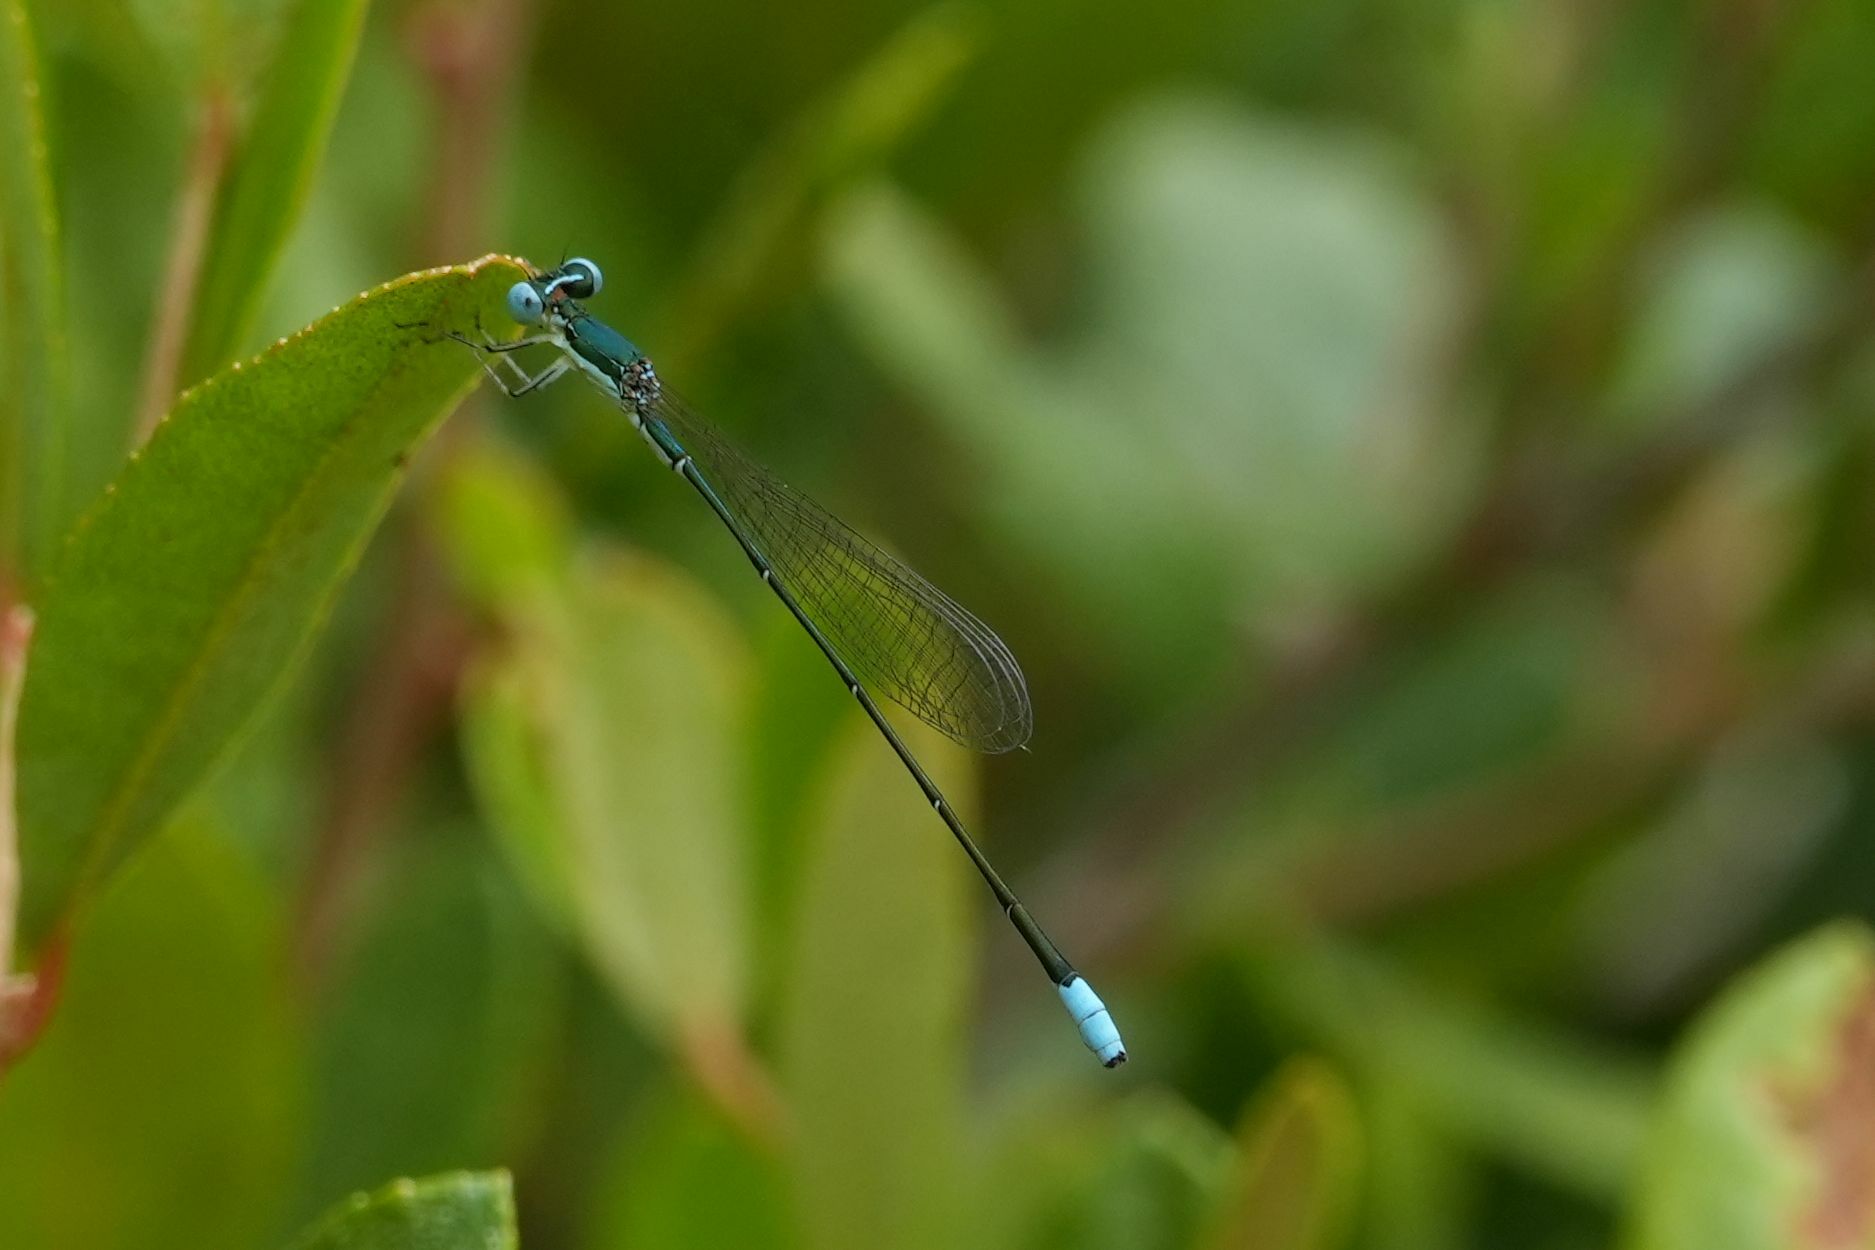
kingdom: Animalia
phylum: Arthropoda
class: Insecta
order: Odonata
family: Coenagrionidae
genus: Nehalennia
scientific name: Nehalennia gracilis
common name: Sphagnum sprite
